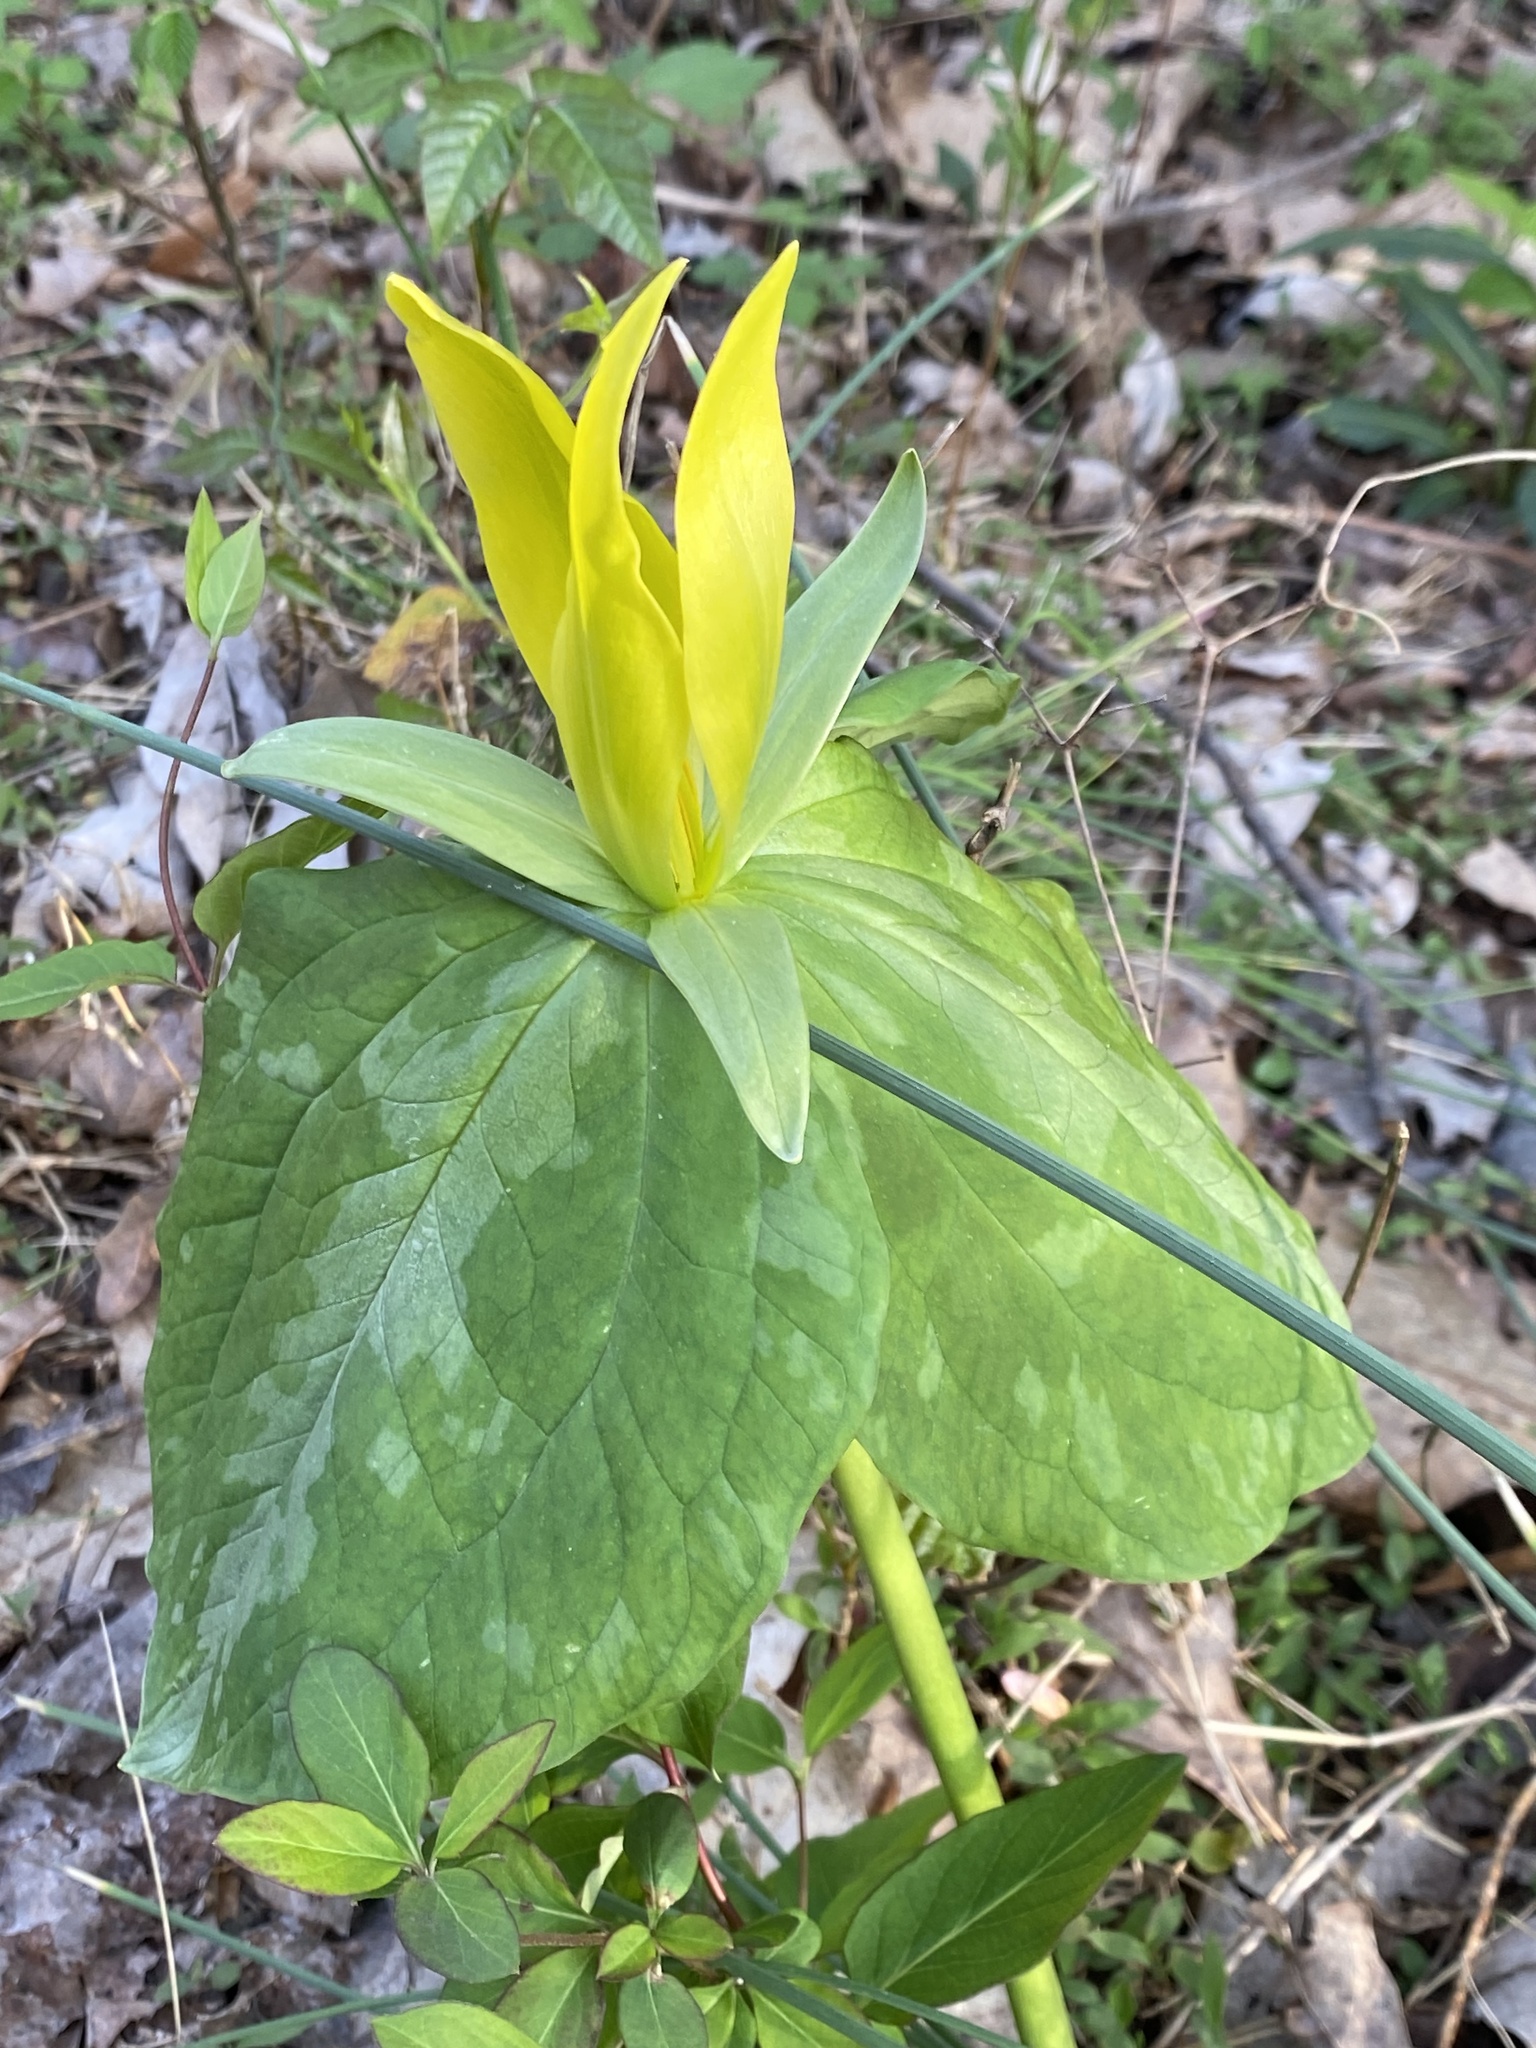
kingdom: Plantae
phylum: Tracheophyta
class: Liliopsida
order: Liliales
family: Melanthiaceae
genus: Trillium
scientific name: Trillium luteum
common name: Wax trillium
